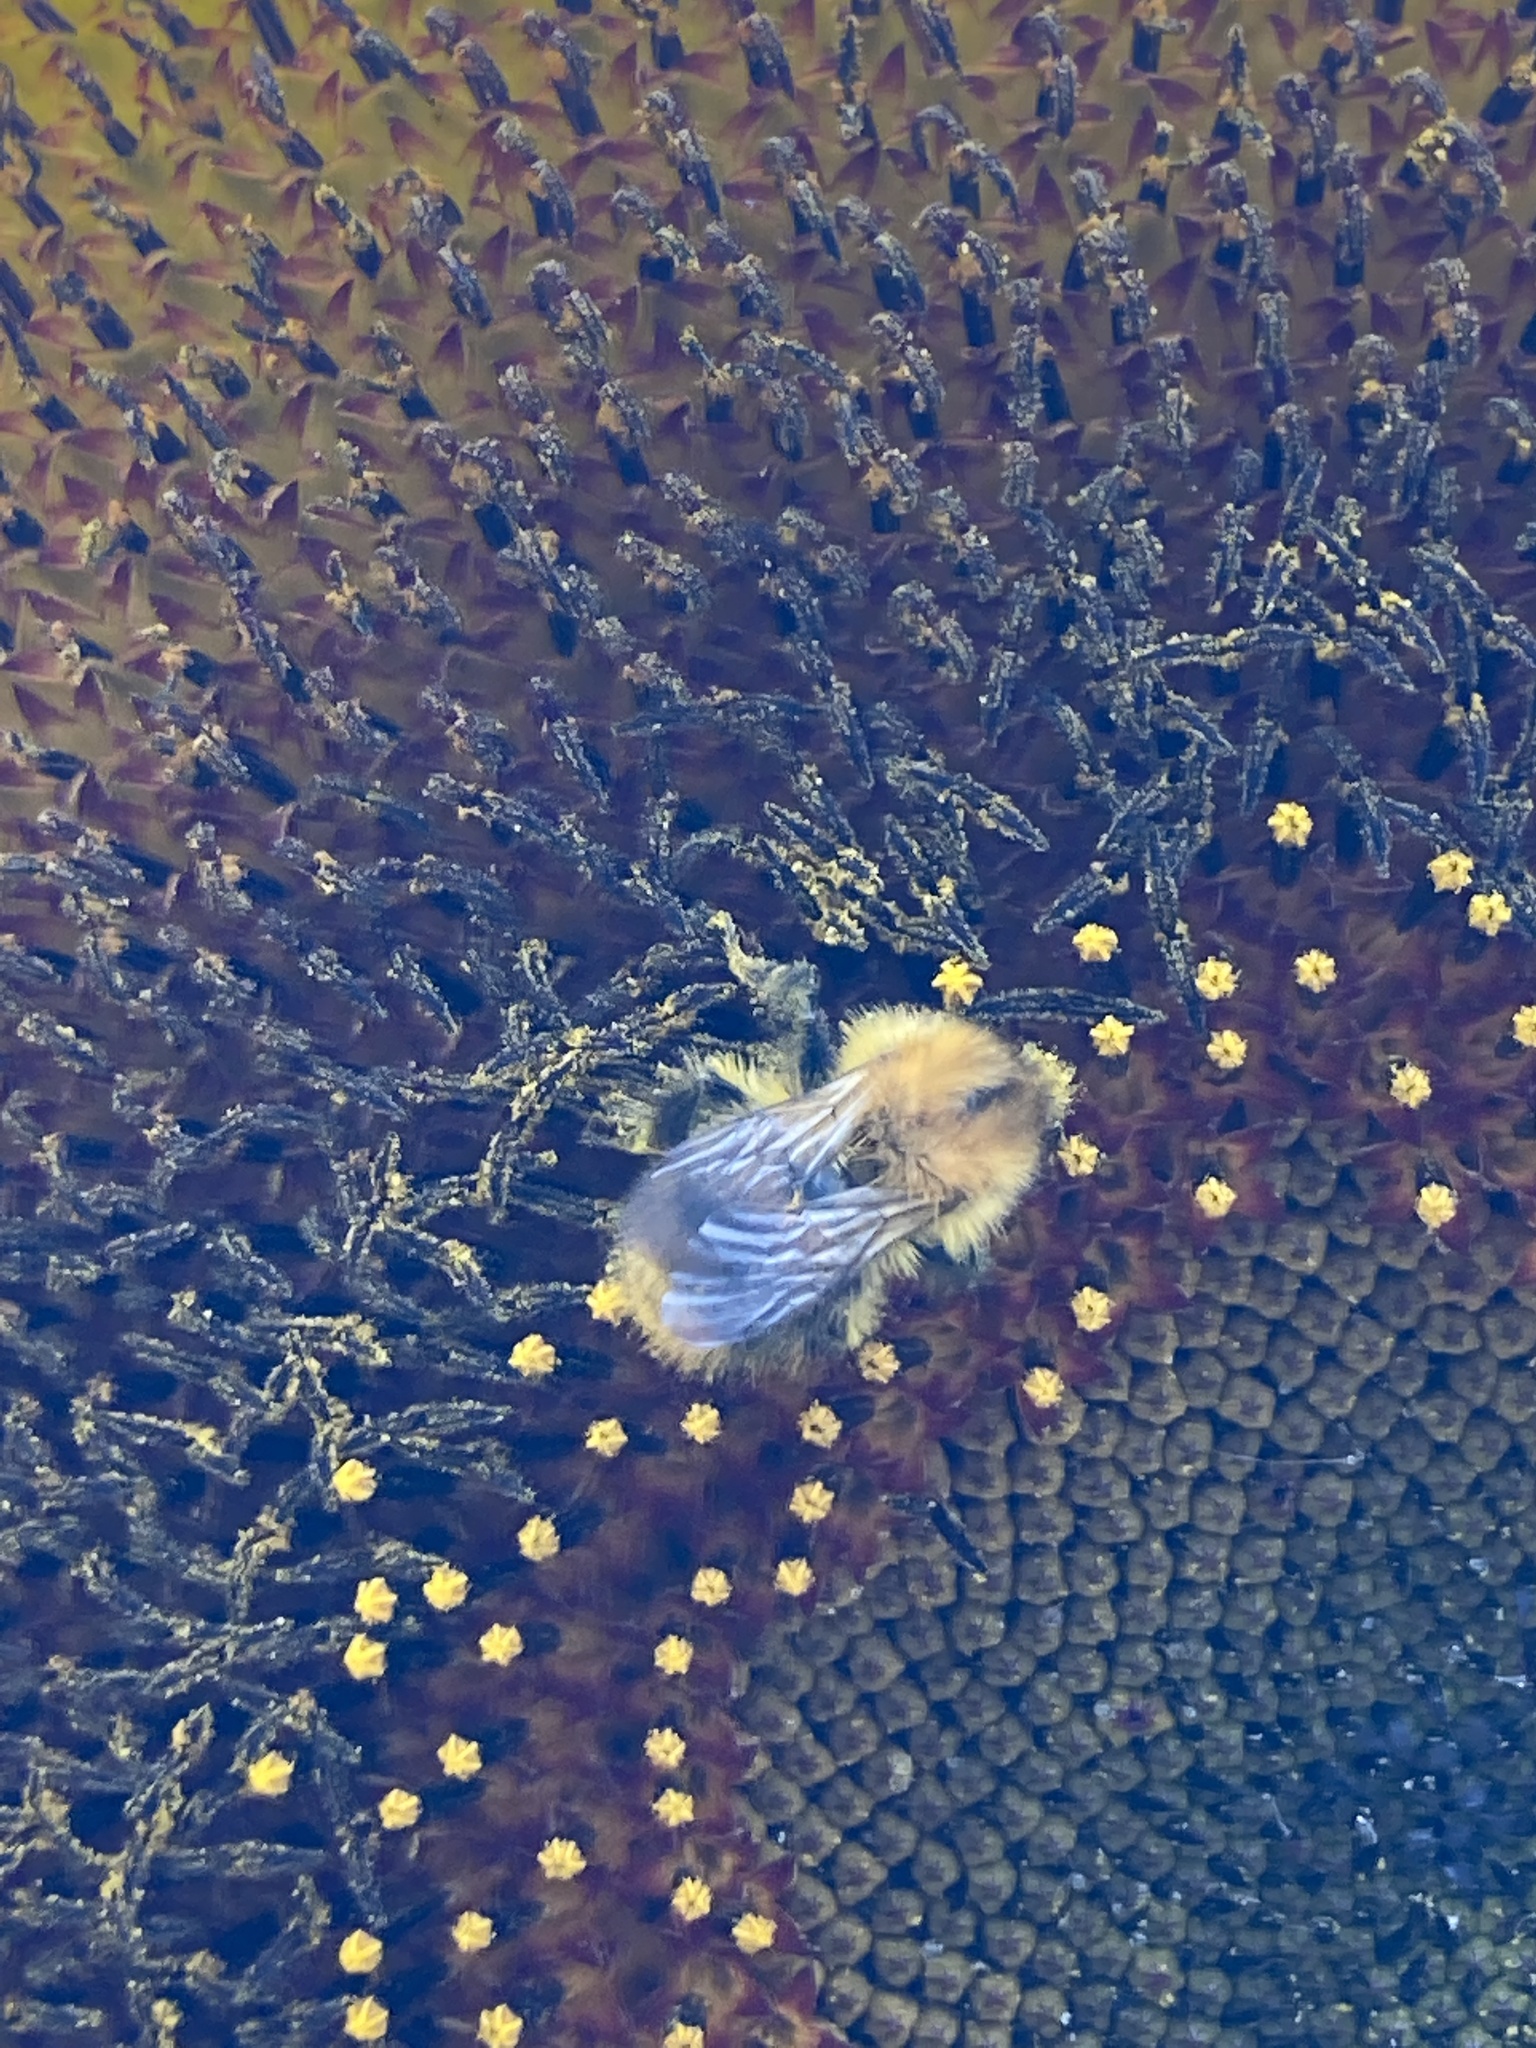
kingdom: Animalia
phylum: Arthropoda
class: Insecta
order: Hymenoptera
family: Apidae
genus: Bombus
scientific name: Bombus pascuorum
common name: Common carder bee
